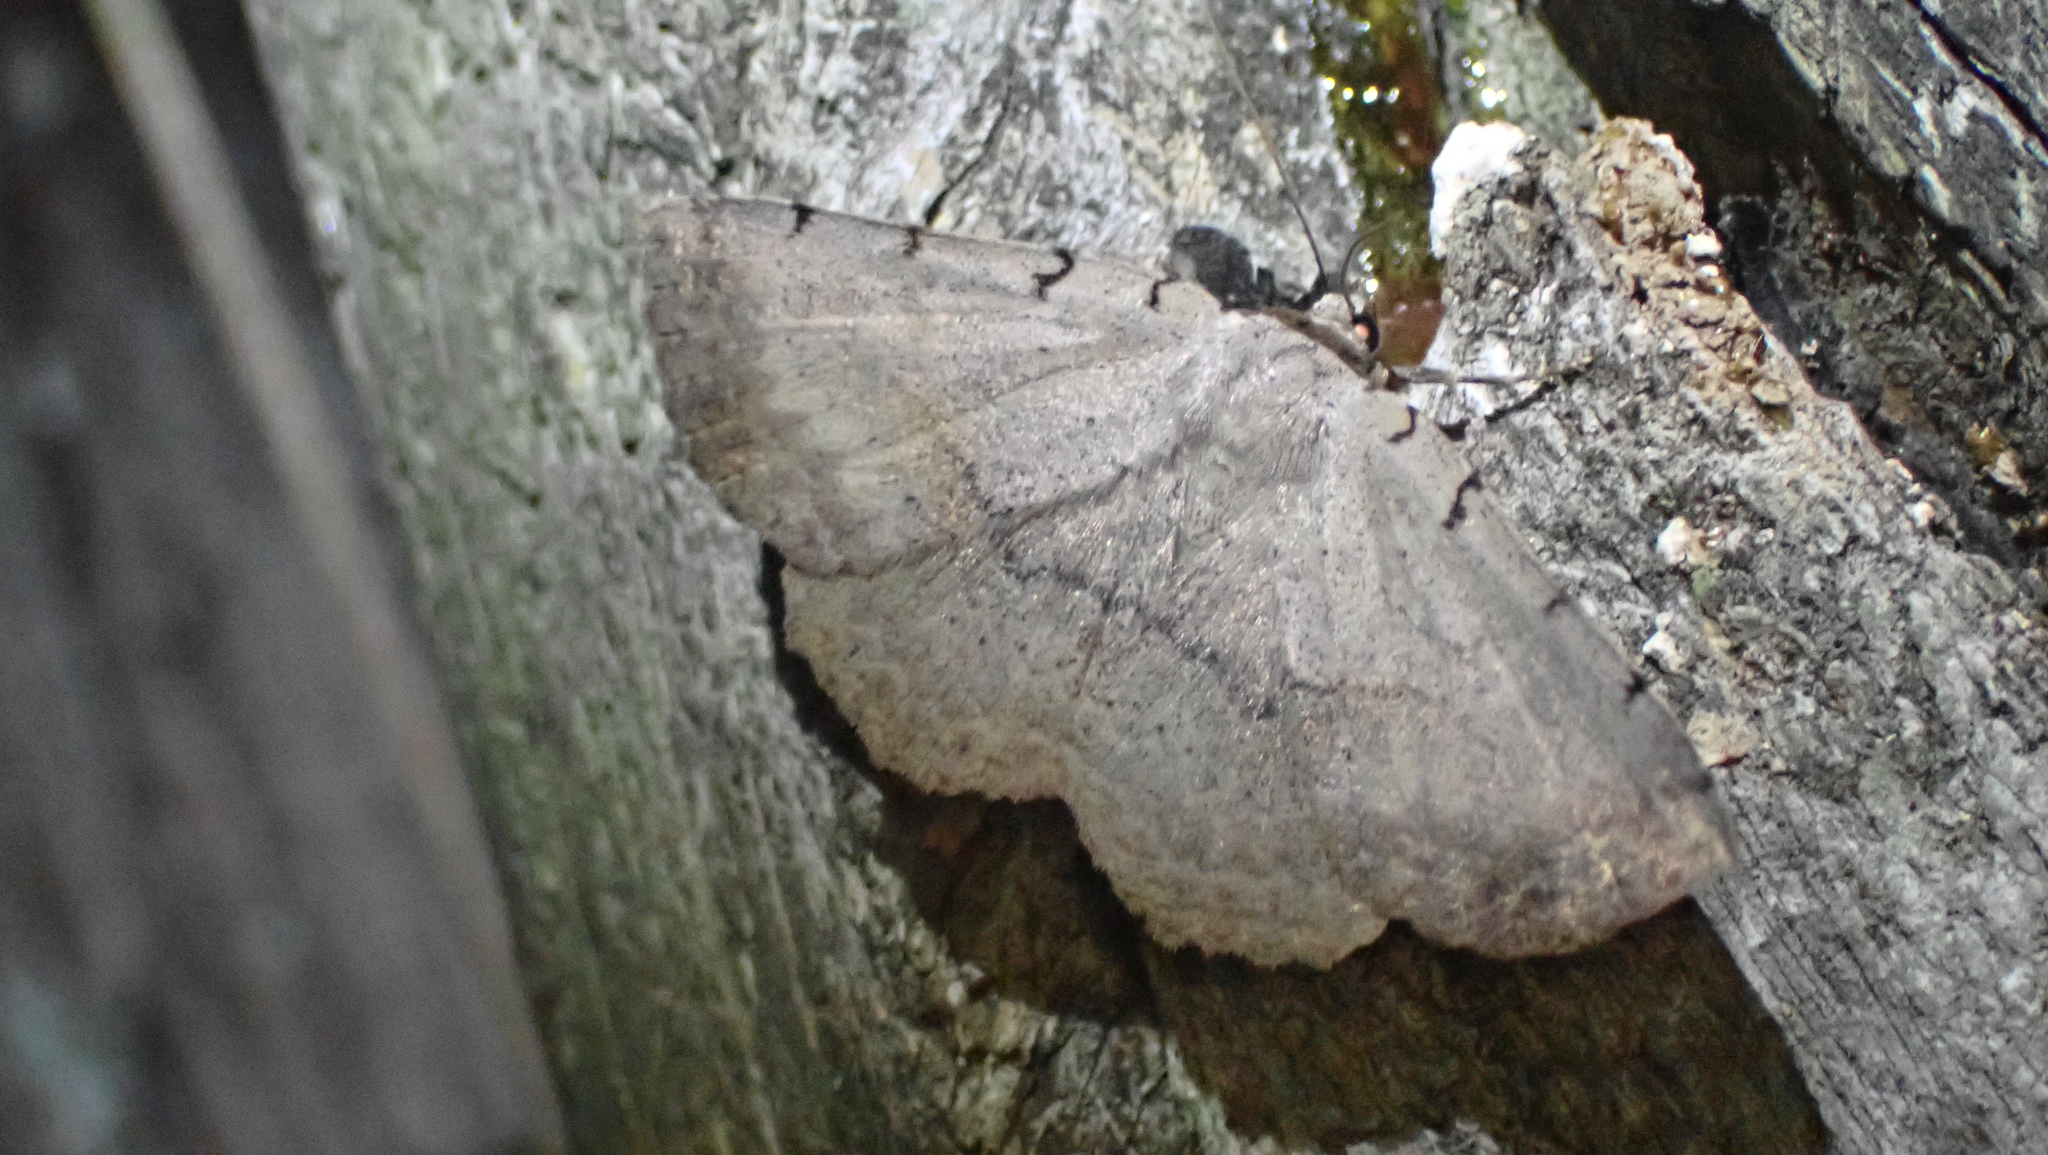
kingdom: Animalia
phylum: Arthropoda
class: Insecta
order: Lepidoptera
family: Erebidae
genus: Spiloloma
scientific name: Spiloloma lunilinea
